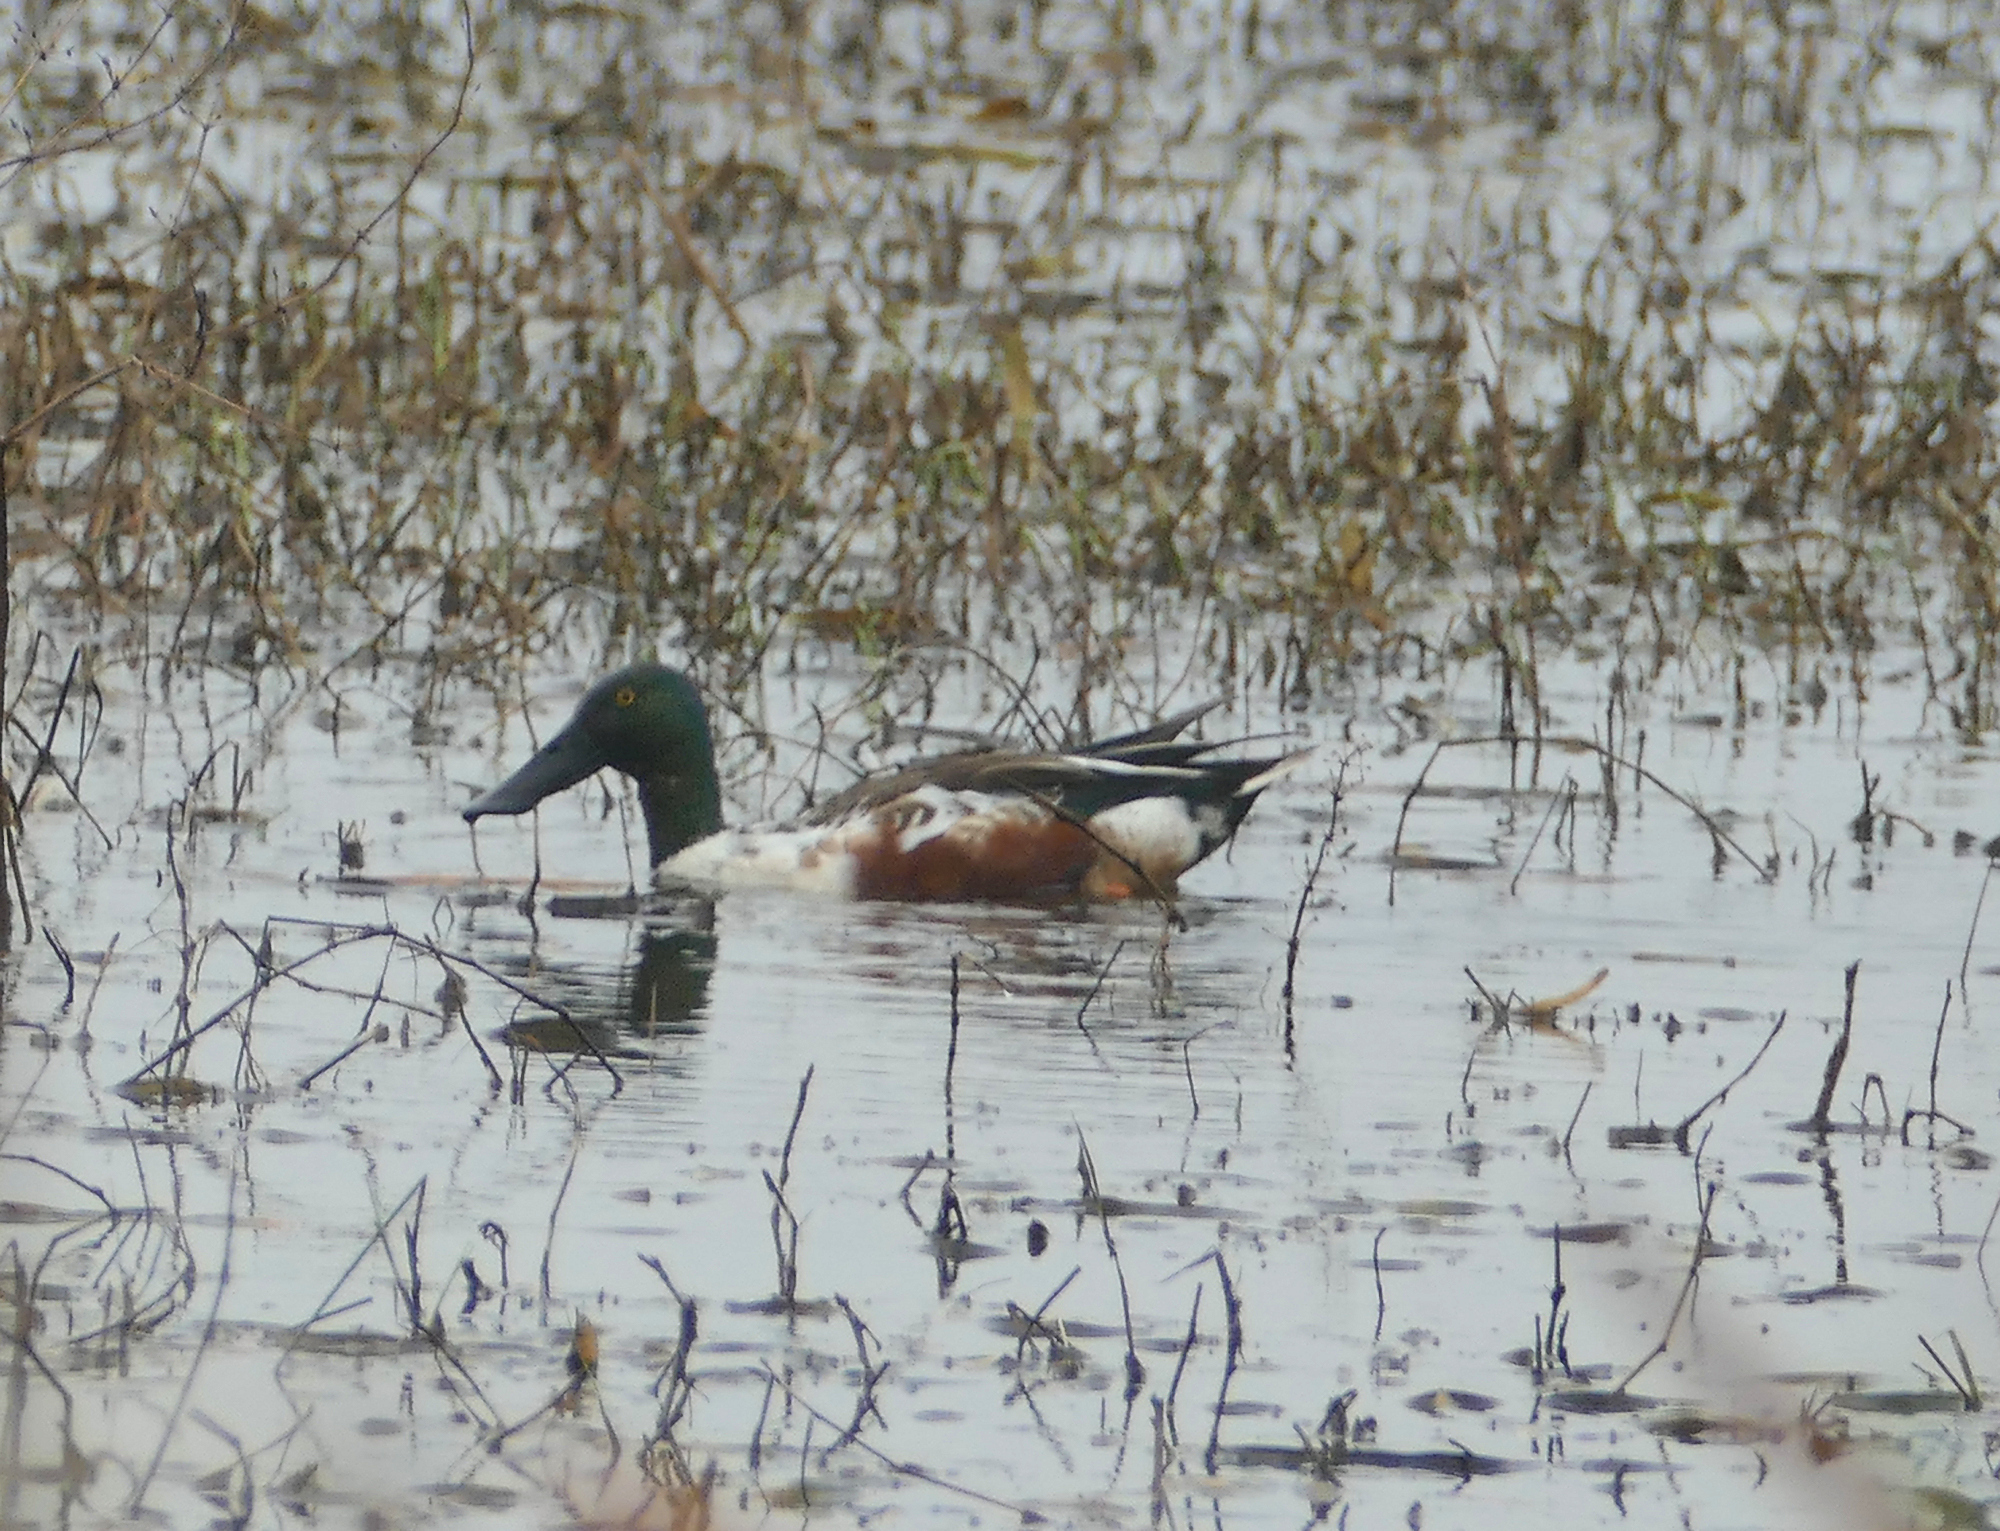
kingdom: Animalia
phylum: Chordata
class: Aves
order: Anseriformes
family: Anatidae
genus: Spatula
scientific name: Spatula clypeata
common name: Northern shoveler
